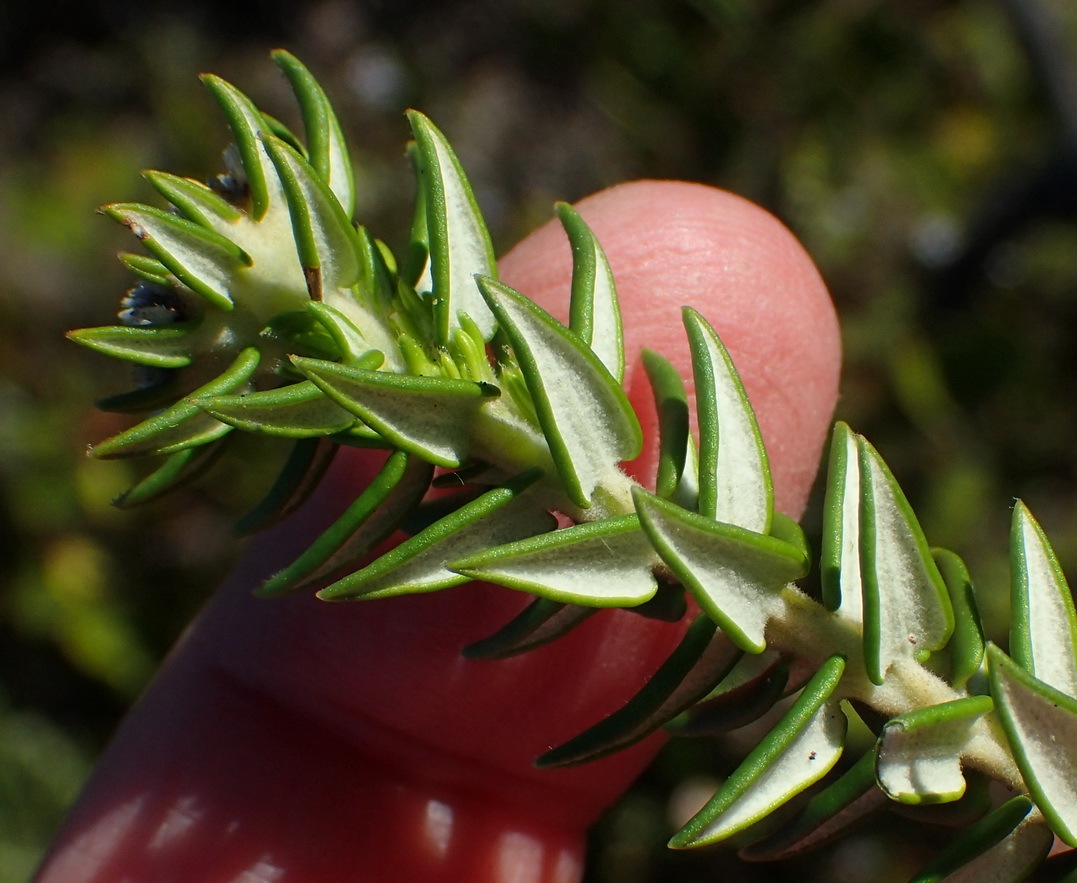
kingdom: Plantae
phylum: Tracheophyta
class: Magnoliopsida
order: Rosales
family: Rhamnaceae
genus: Phylica
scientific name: Phylica litoralis
